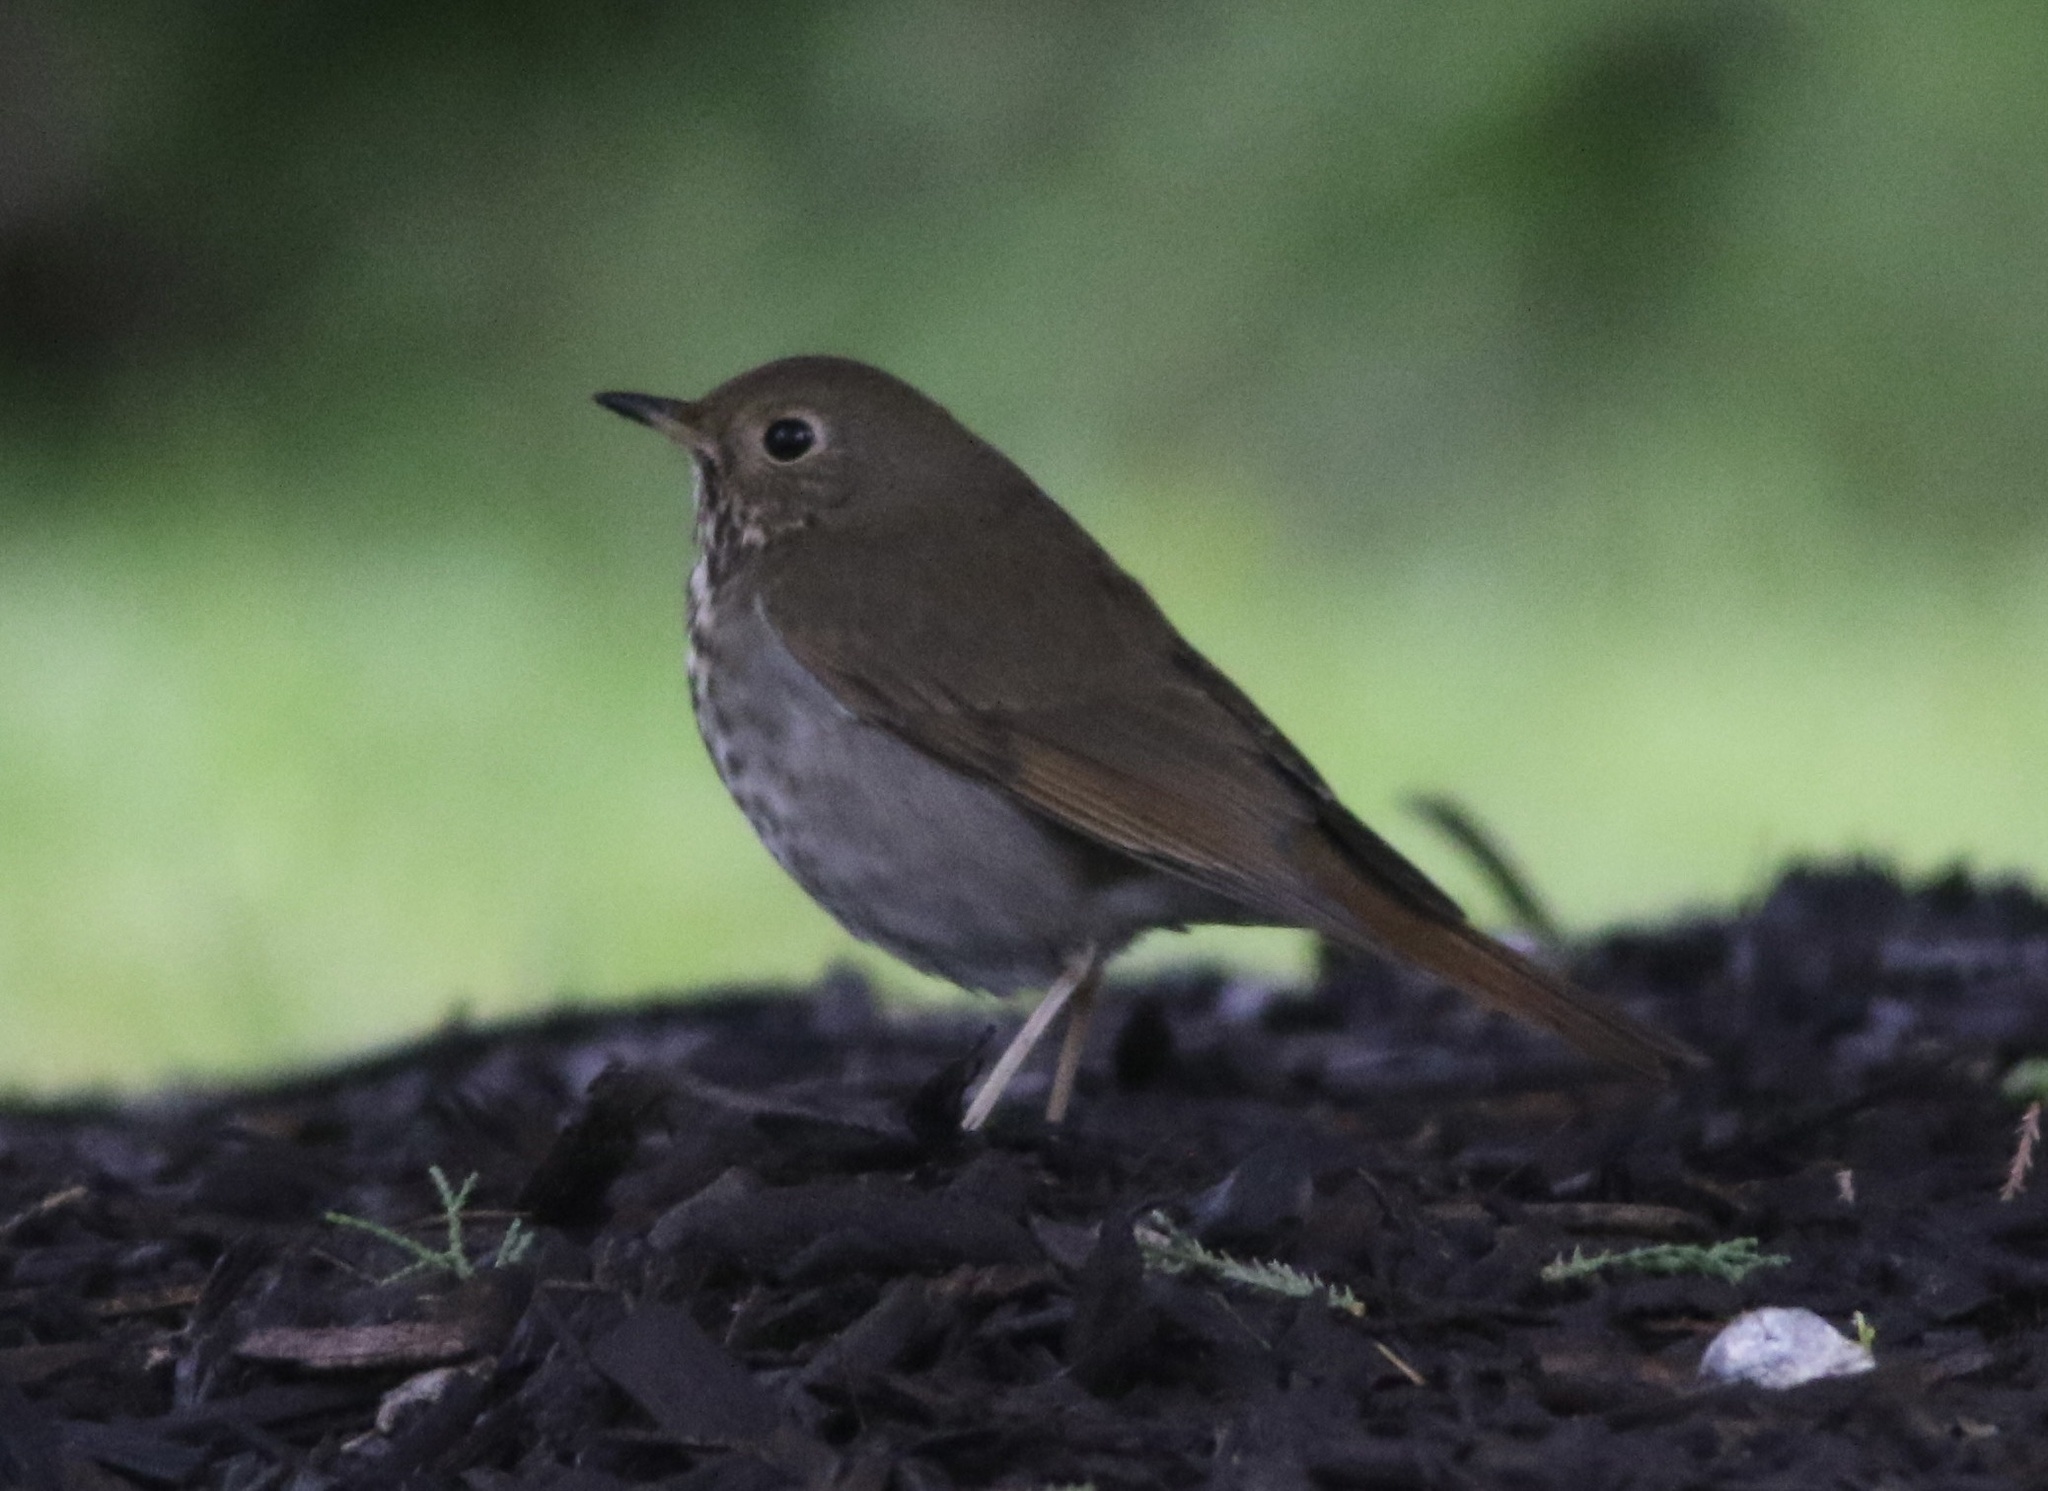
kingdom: Animalia
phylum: Chordata
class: Aves
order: Passeriformes
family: Turdidae
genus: Catharus
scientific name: Catharus guttatus
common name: Hermit thrush
